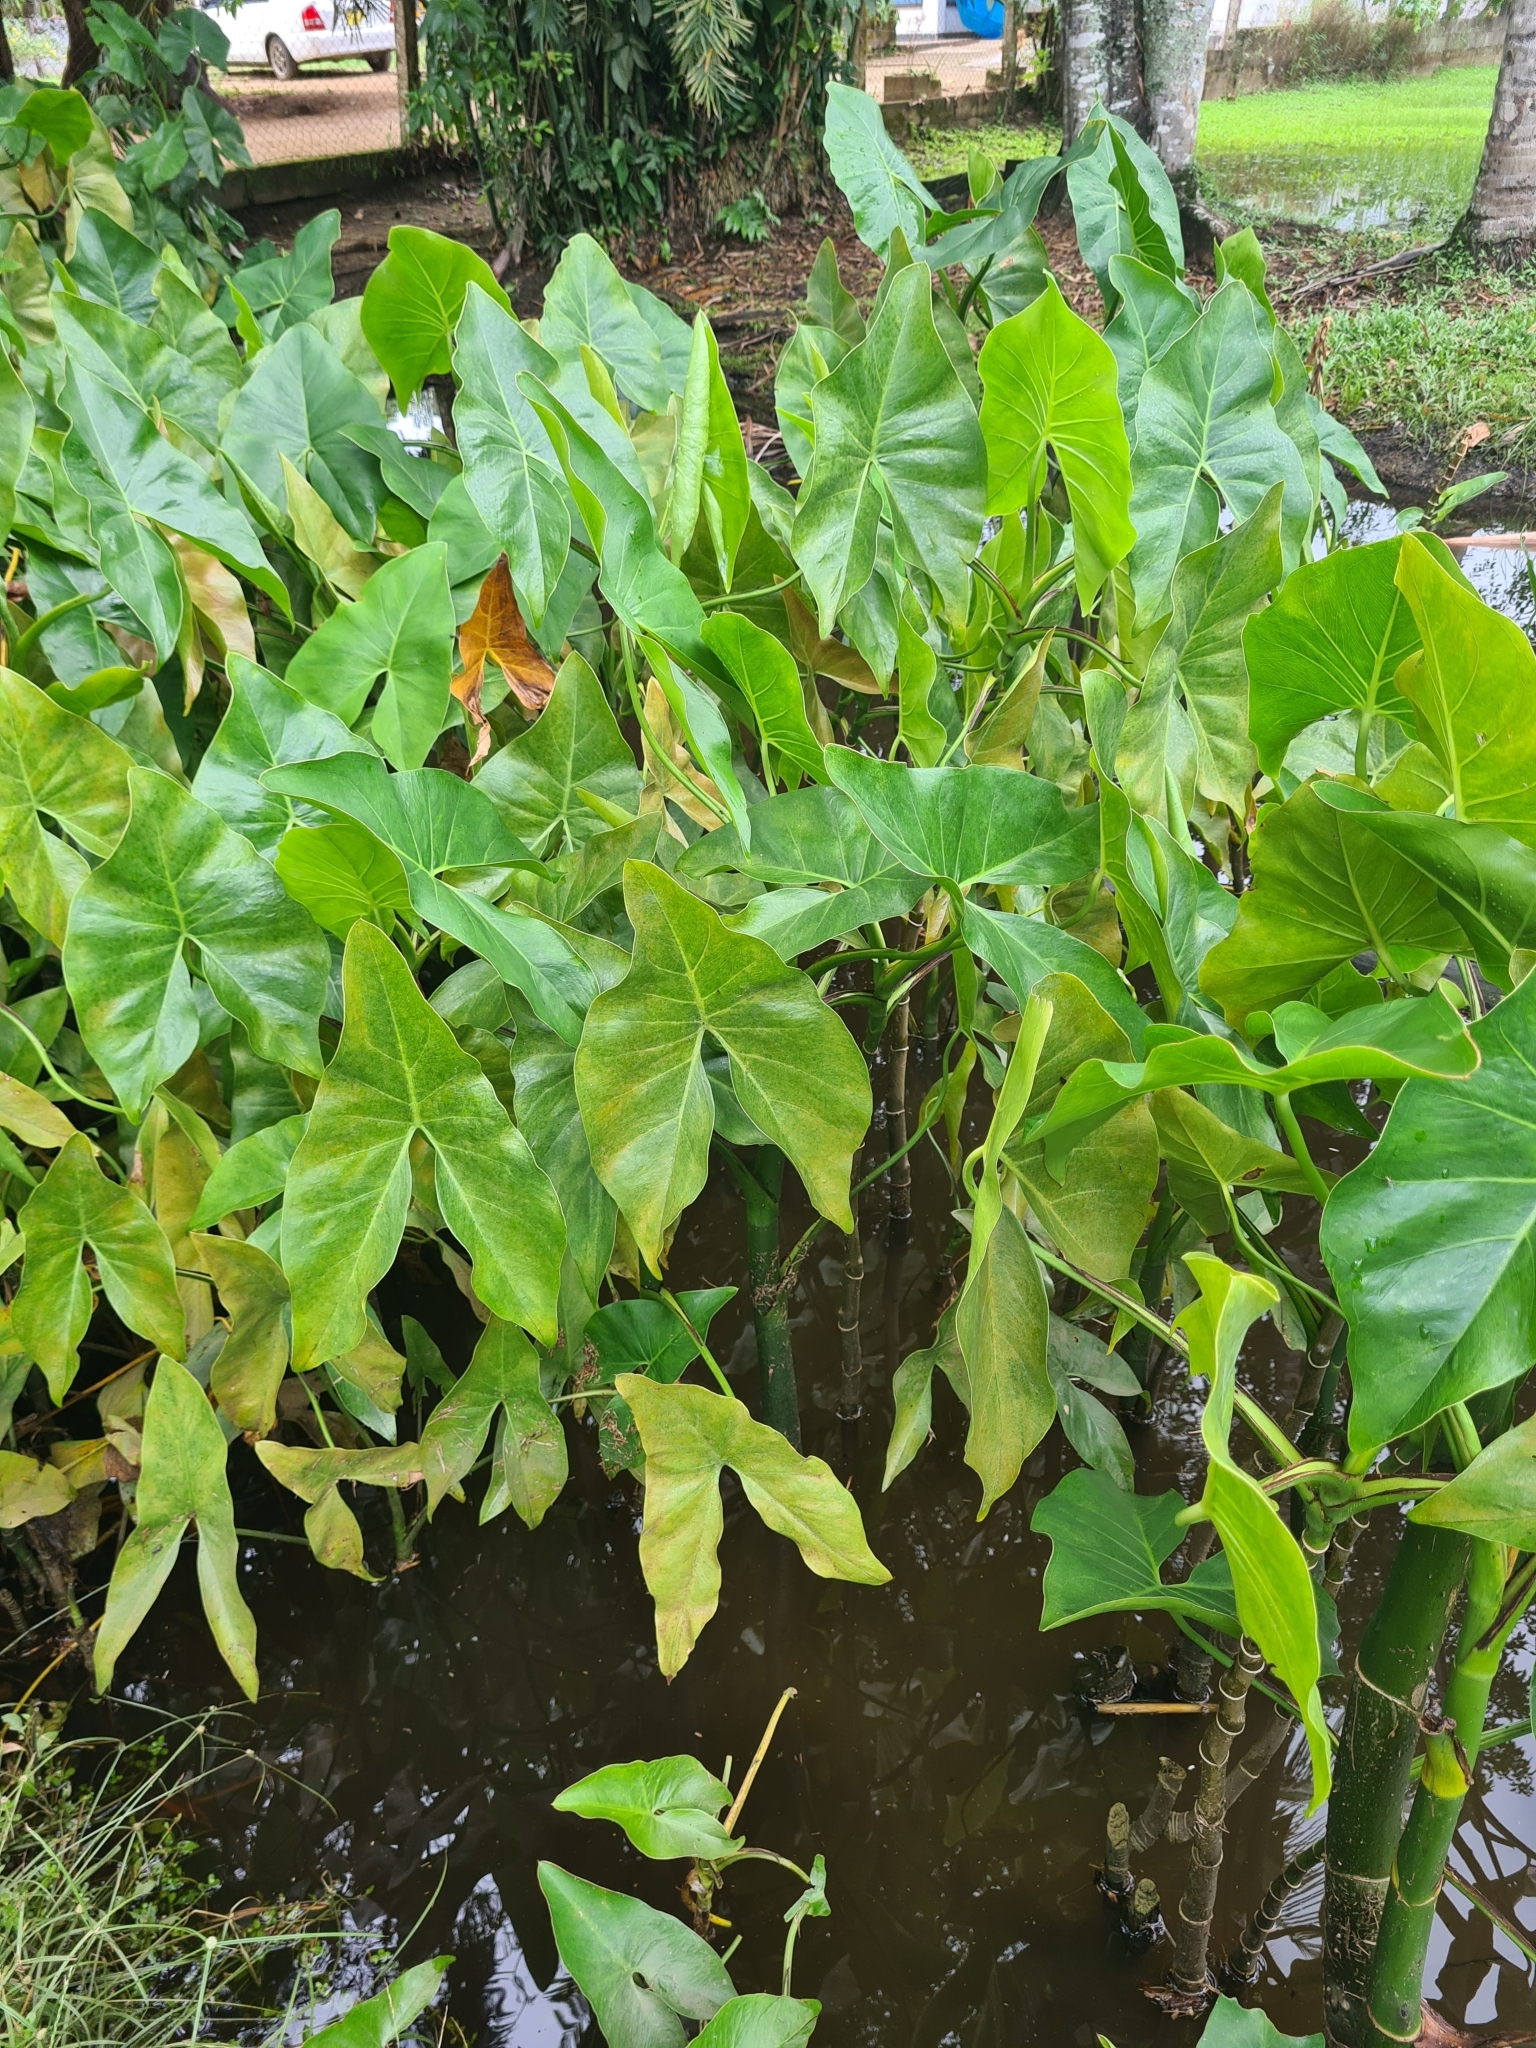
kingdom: Plantae
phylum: Tracheophyta
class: Liliopsida
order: Alismatales
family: Araceae
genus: Montrichardia
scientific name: Montrichardia arborescens
